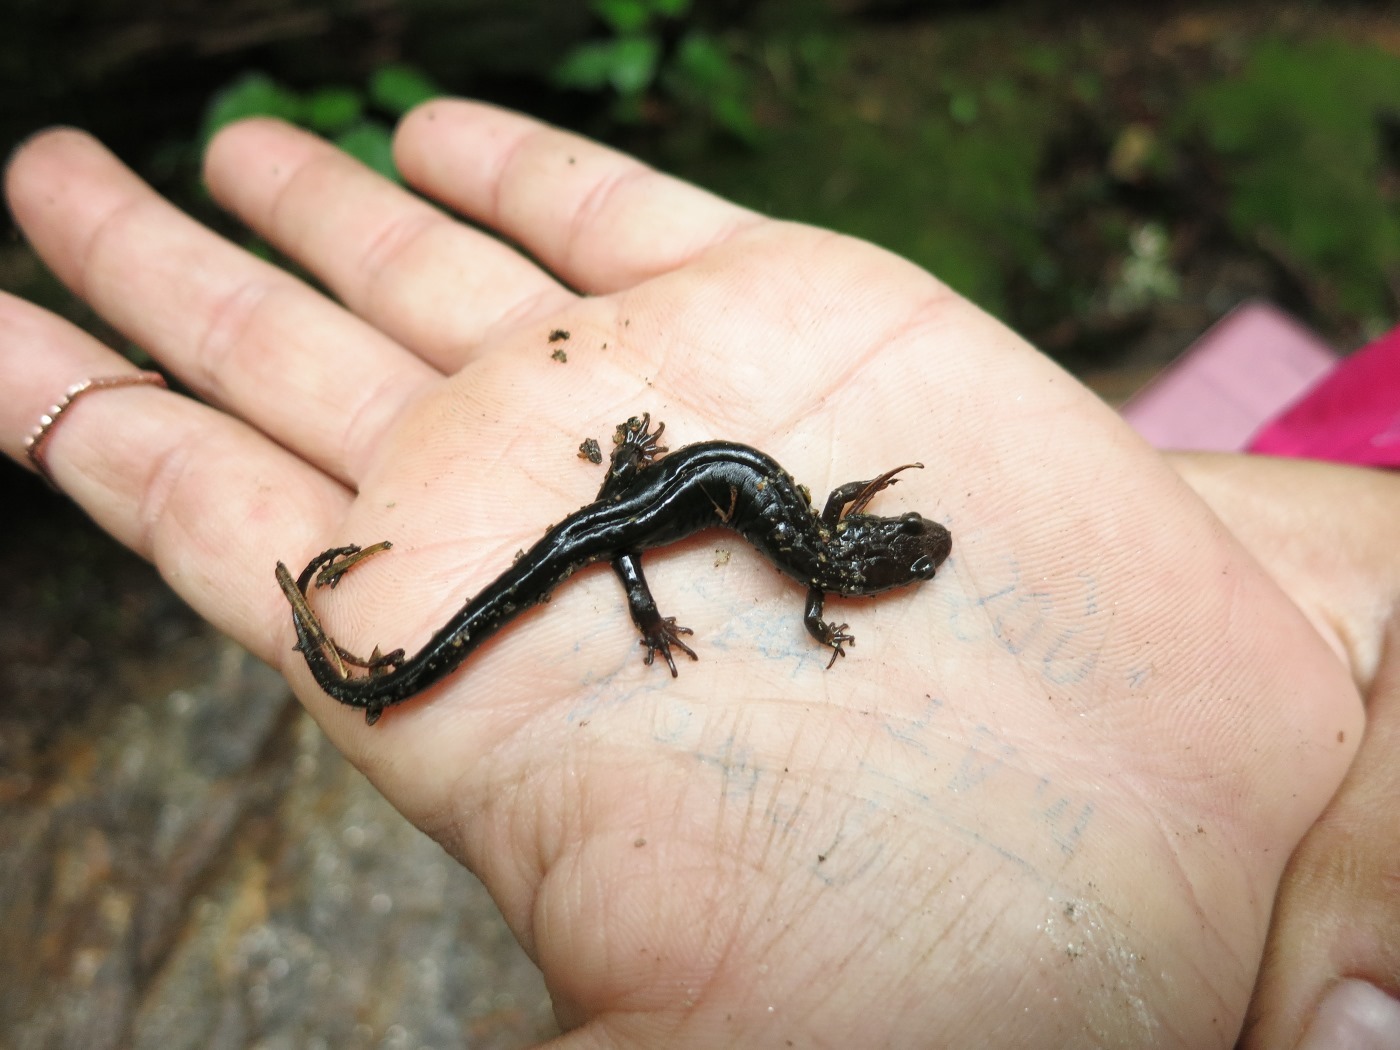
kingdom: Animalia
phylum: Chordata
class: Amphibia
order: Caudata
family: Plethodontidae
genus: Desmognathus
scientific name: Desmognathus carolinensis
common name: Carolina mountain dusky salamander
